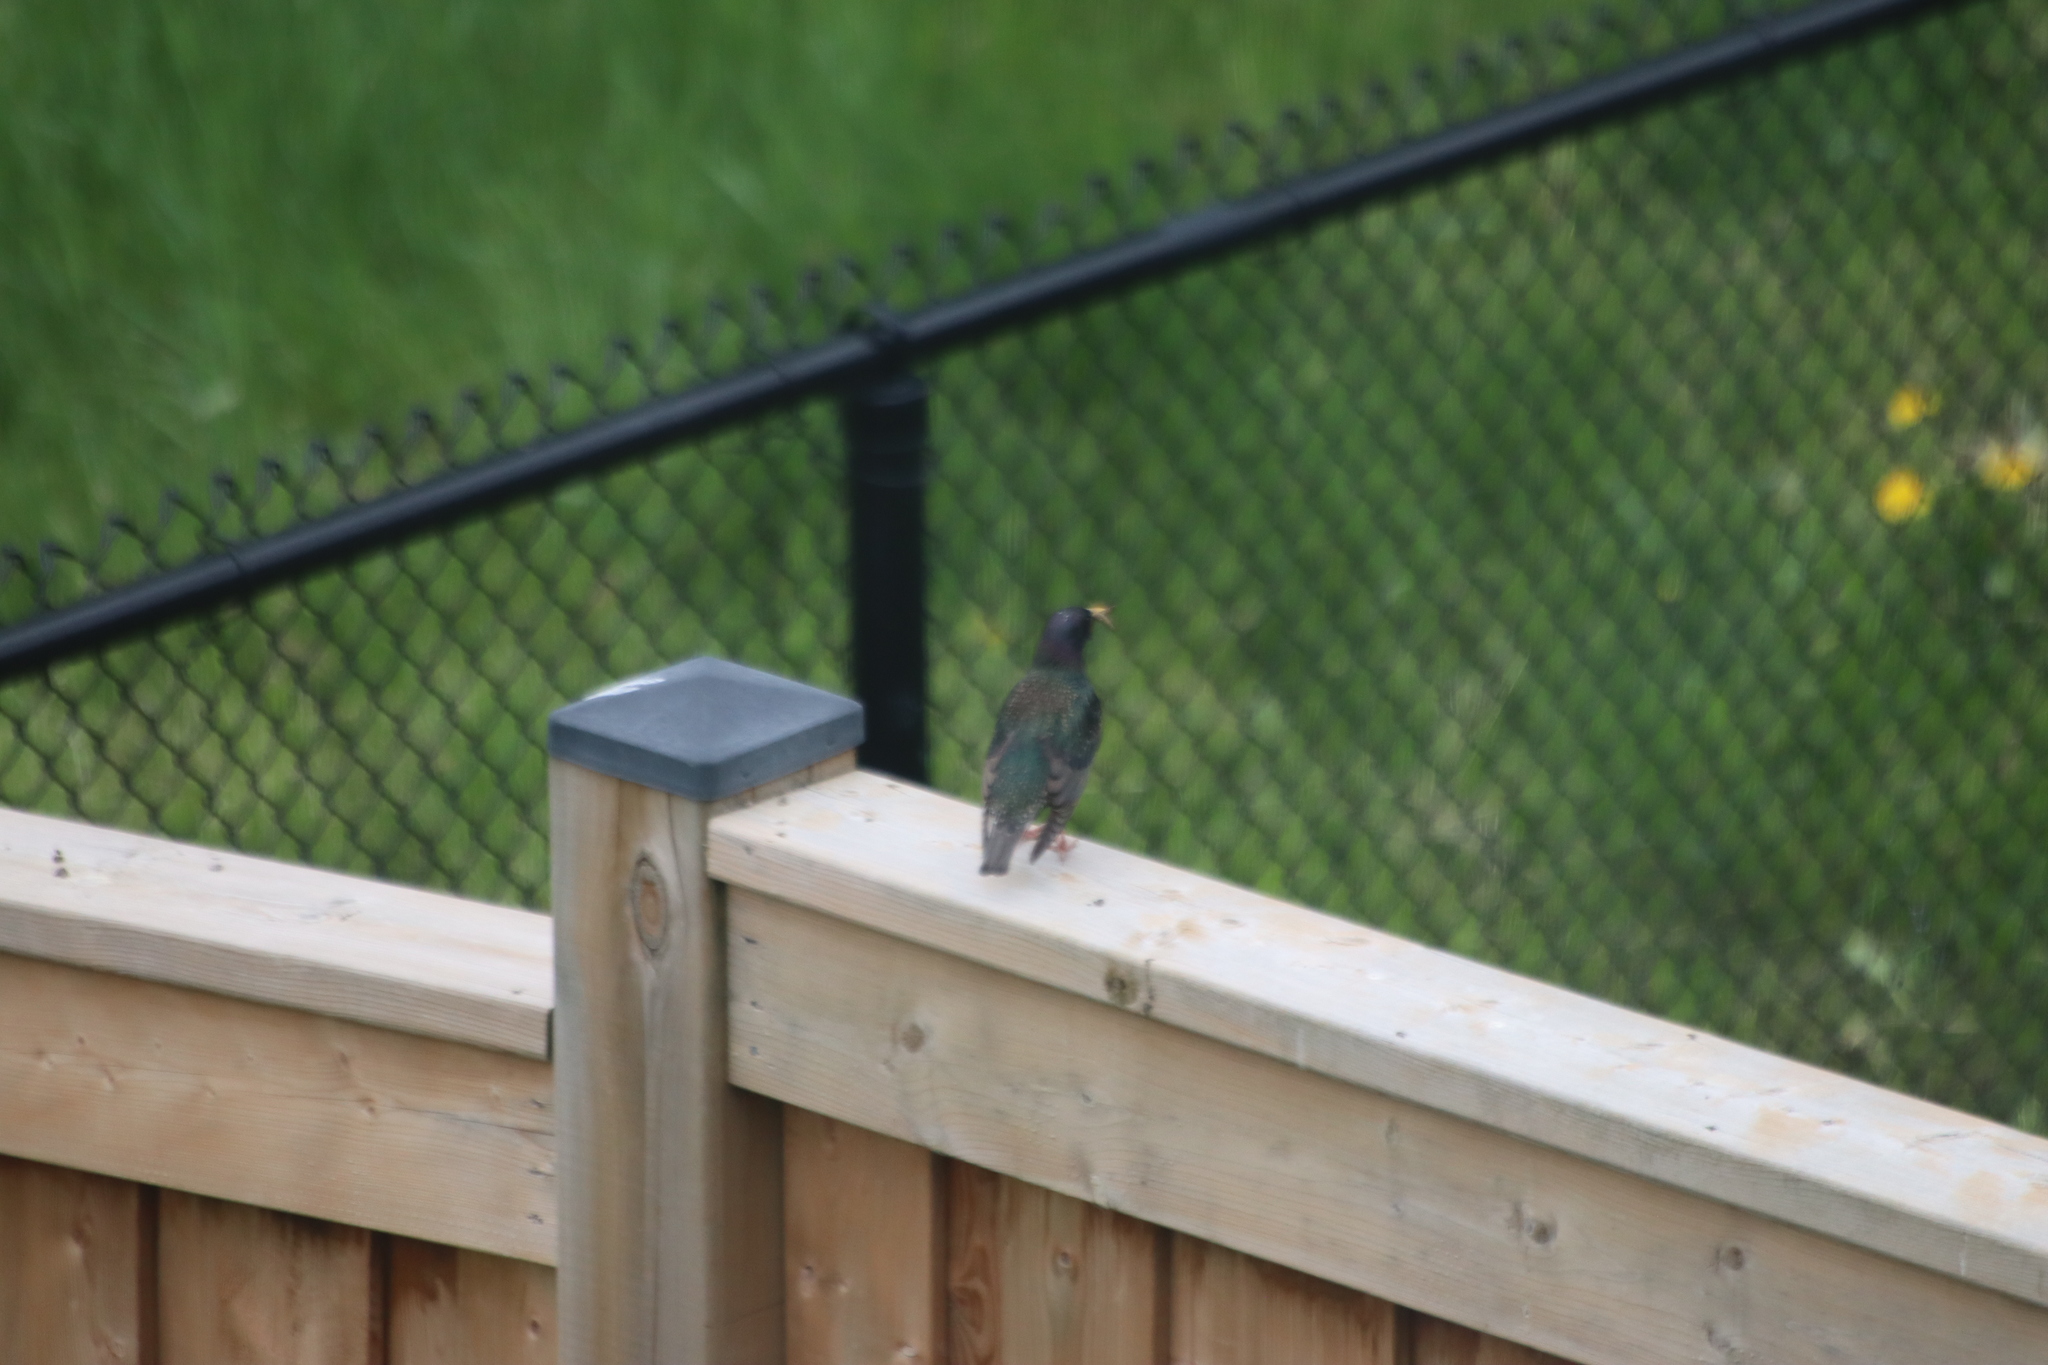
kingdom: Animalia
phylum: Chordata
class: Aves
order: Passeriformes
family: Sturnidae
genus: Sturnus
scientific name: Sturnus vulgaris
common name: Common starling
